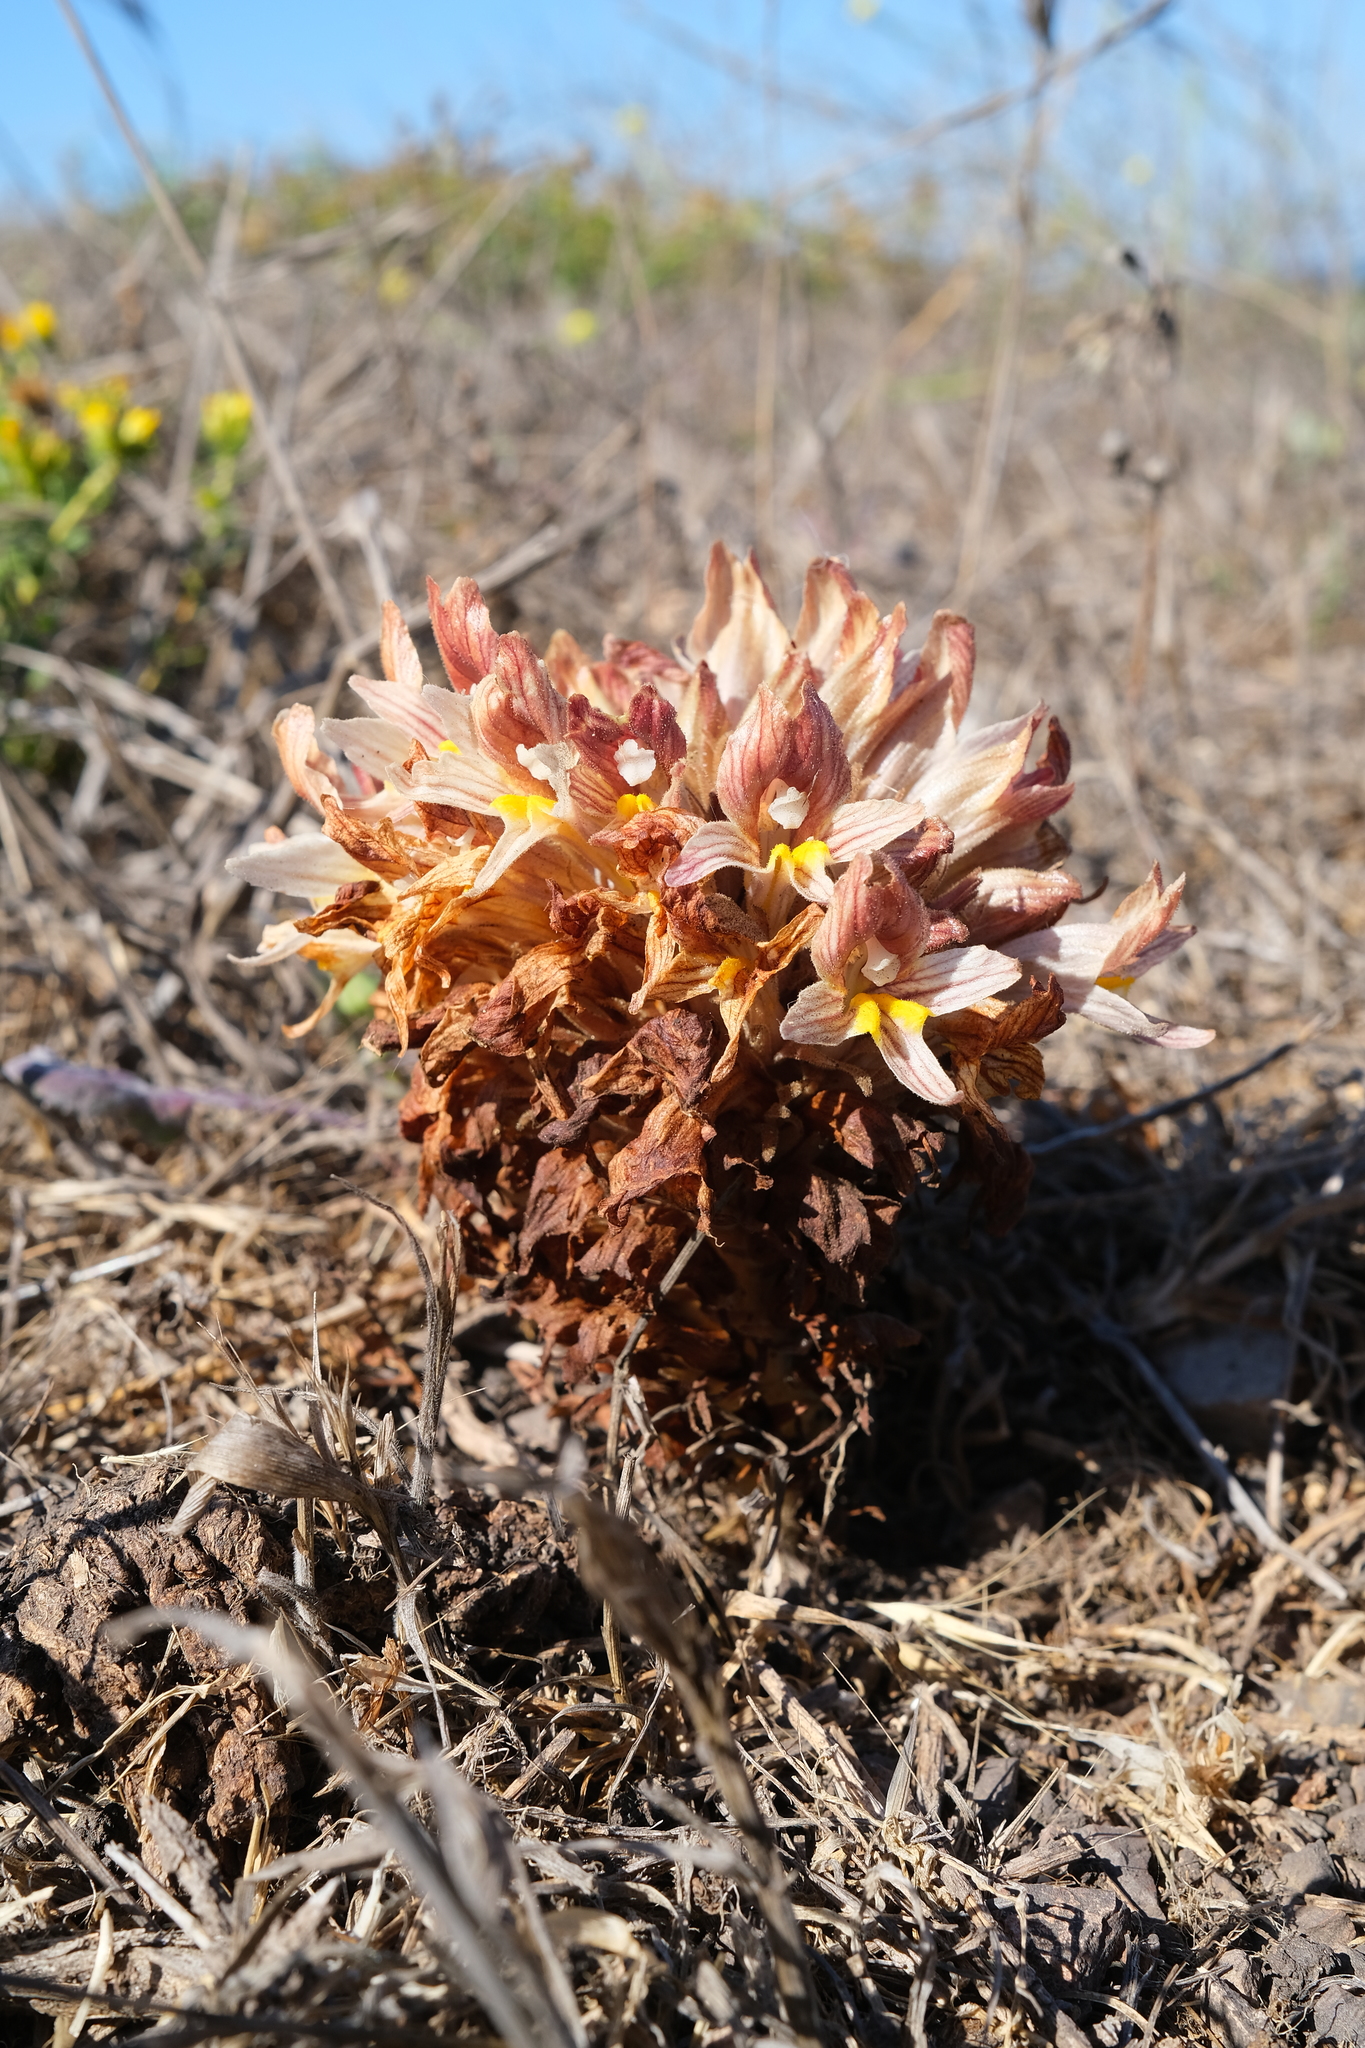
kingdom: Plantae
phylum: Tracheophyta
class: Magnoliopsida
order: Lamiales
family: Orobanchaceae
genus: Aphyllon
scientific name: Aphyllon californicum
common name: California broomrape
